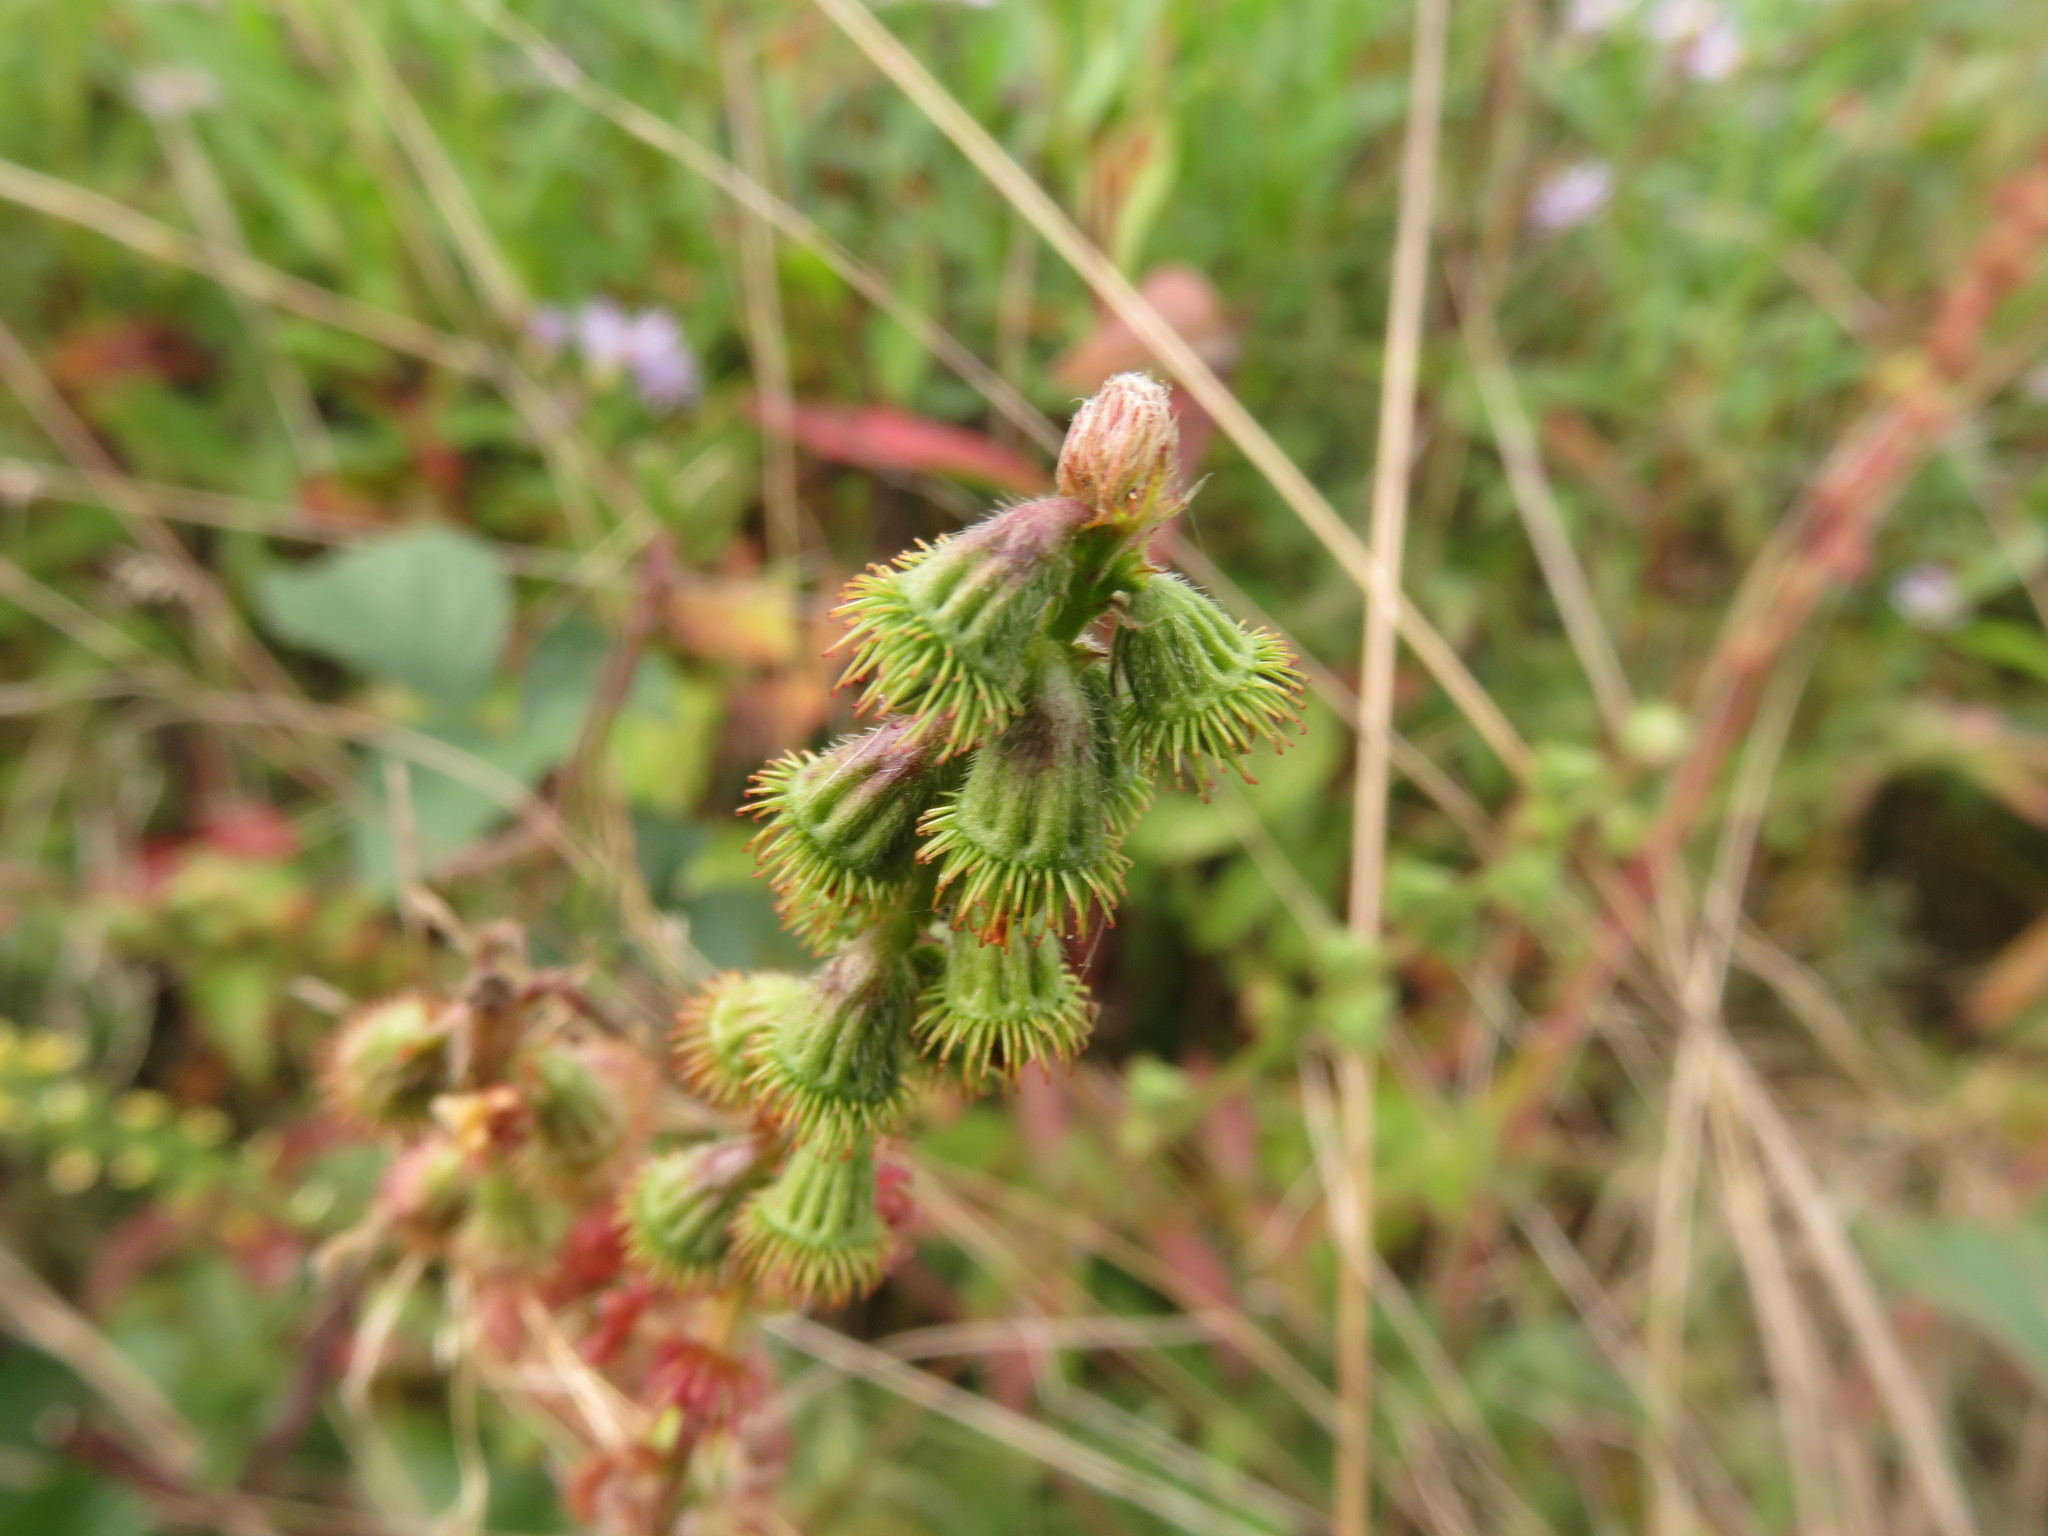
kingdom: Plantae
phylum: Tracheophyta
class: Magnoliopsida
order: Rosales
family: Rosaceae
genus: Agrimonia
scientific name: Agrimonia eupatoria
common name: Agrimony
